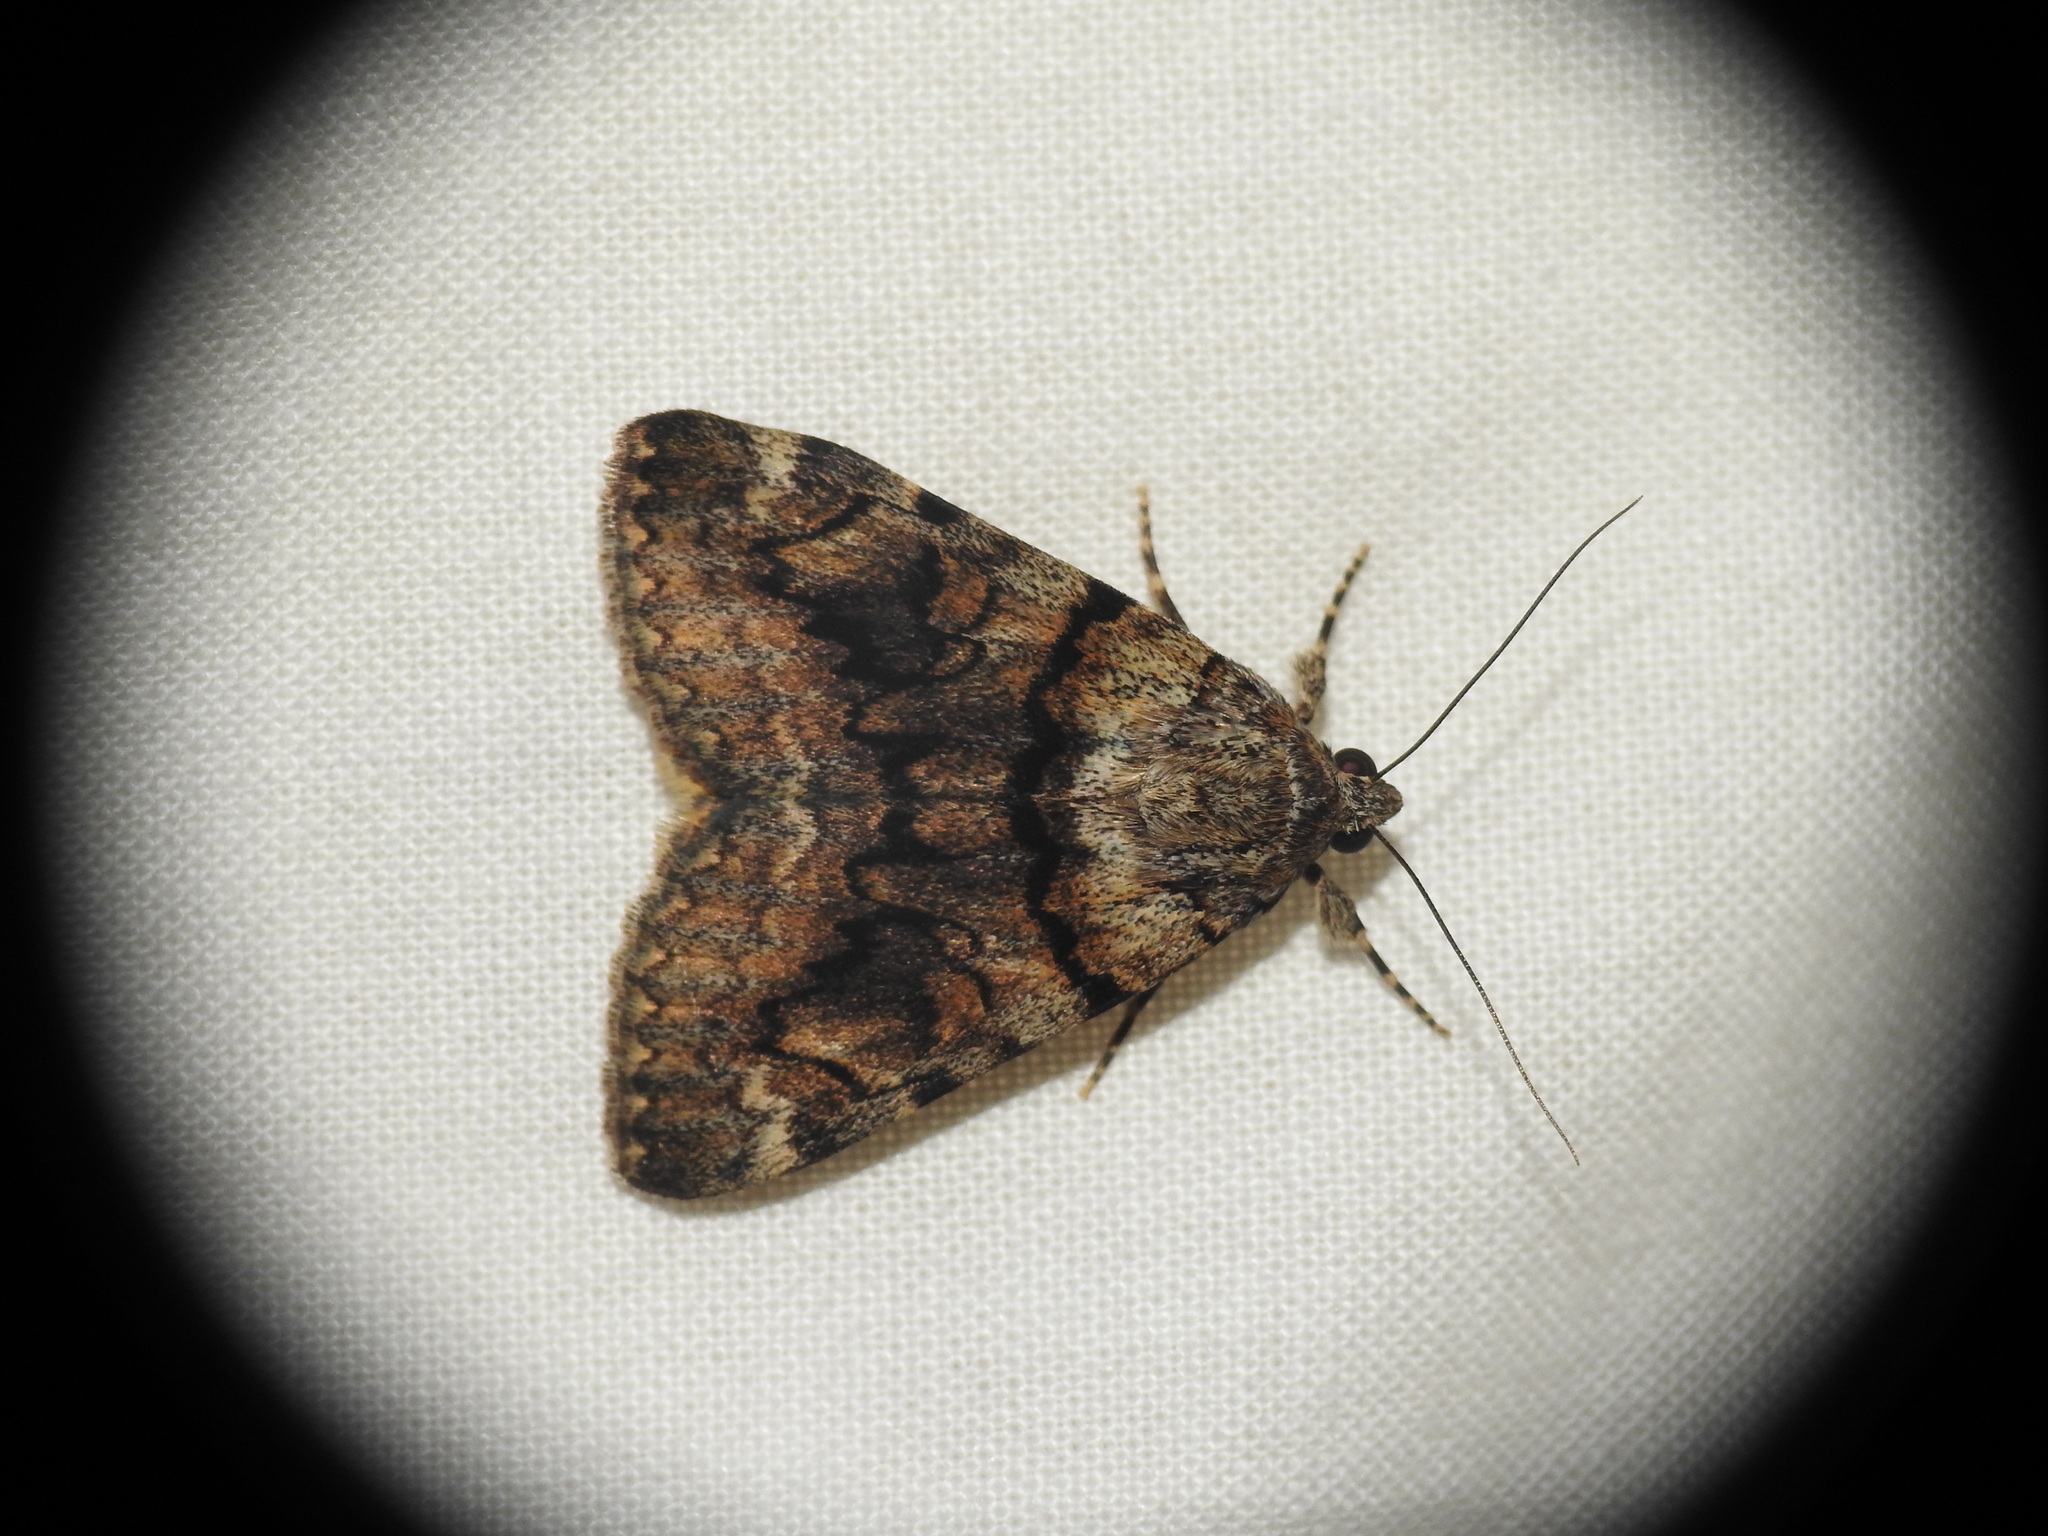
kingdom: Animalia
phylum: Arthropoda
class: Insecta
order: Lepidoptera
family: Erebidae
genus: Catocala
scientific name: Catocala nymphagoga
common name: Oak yellow underwing
